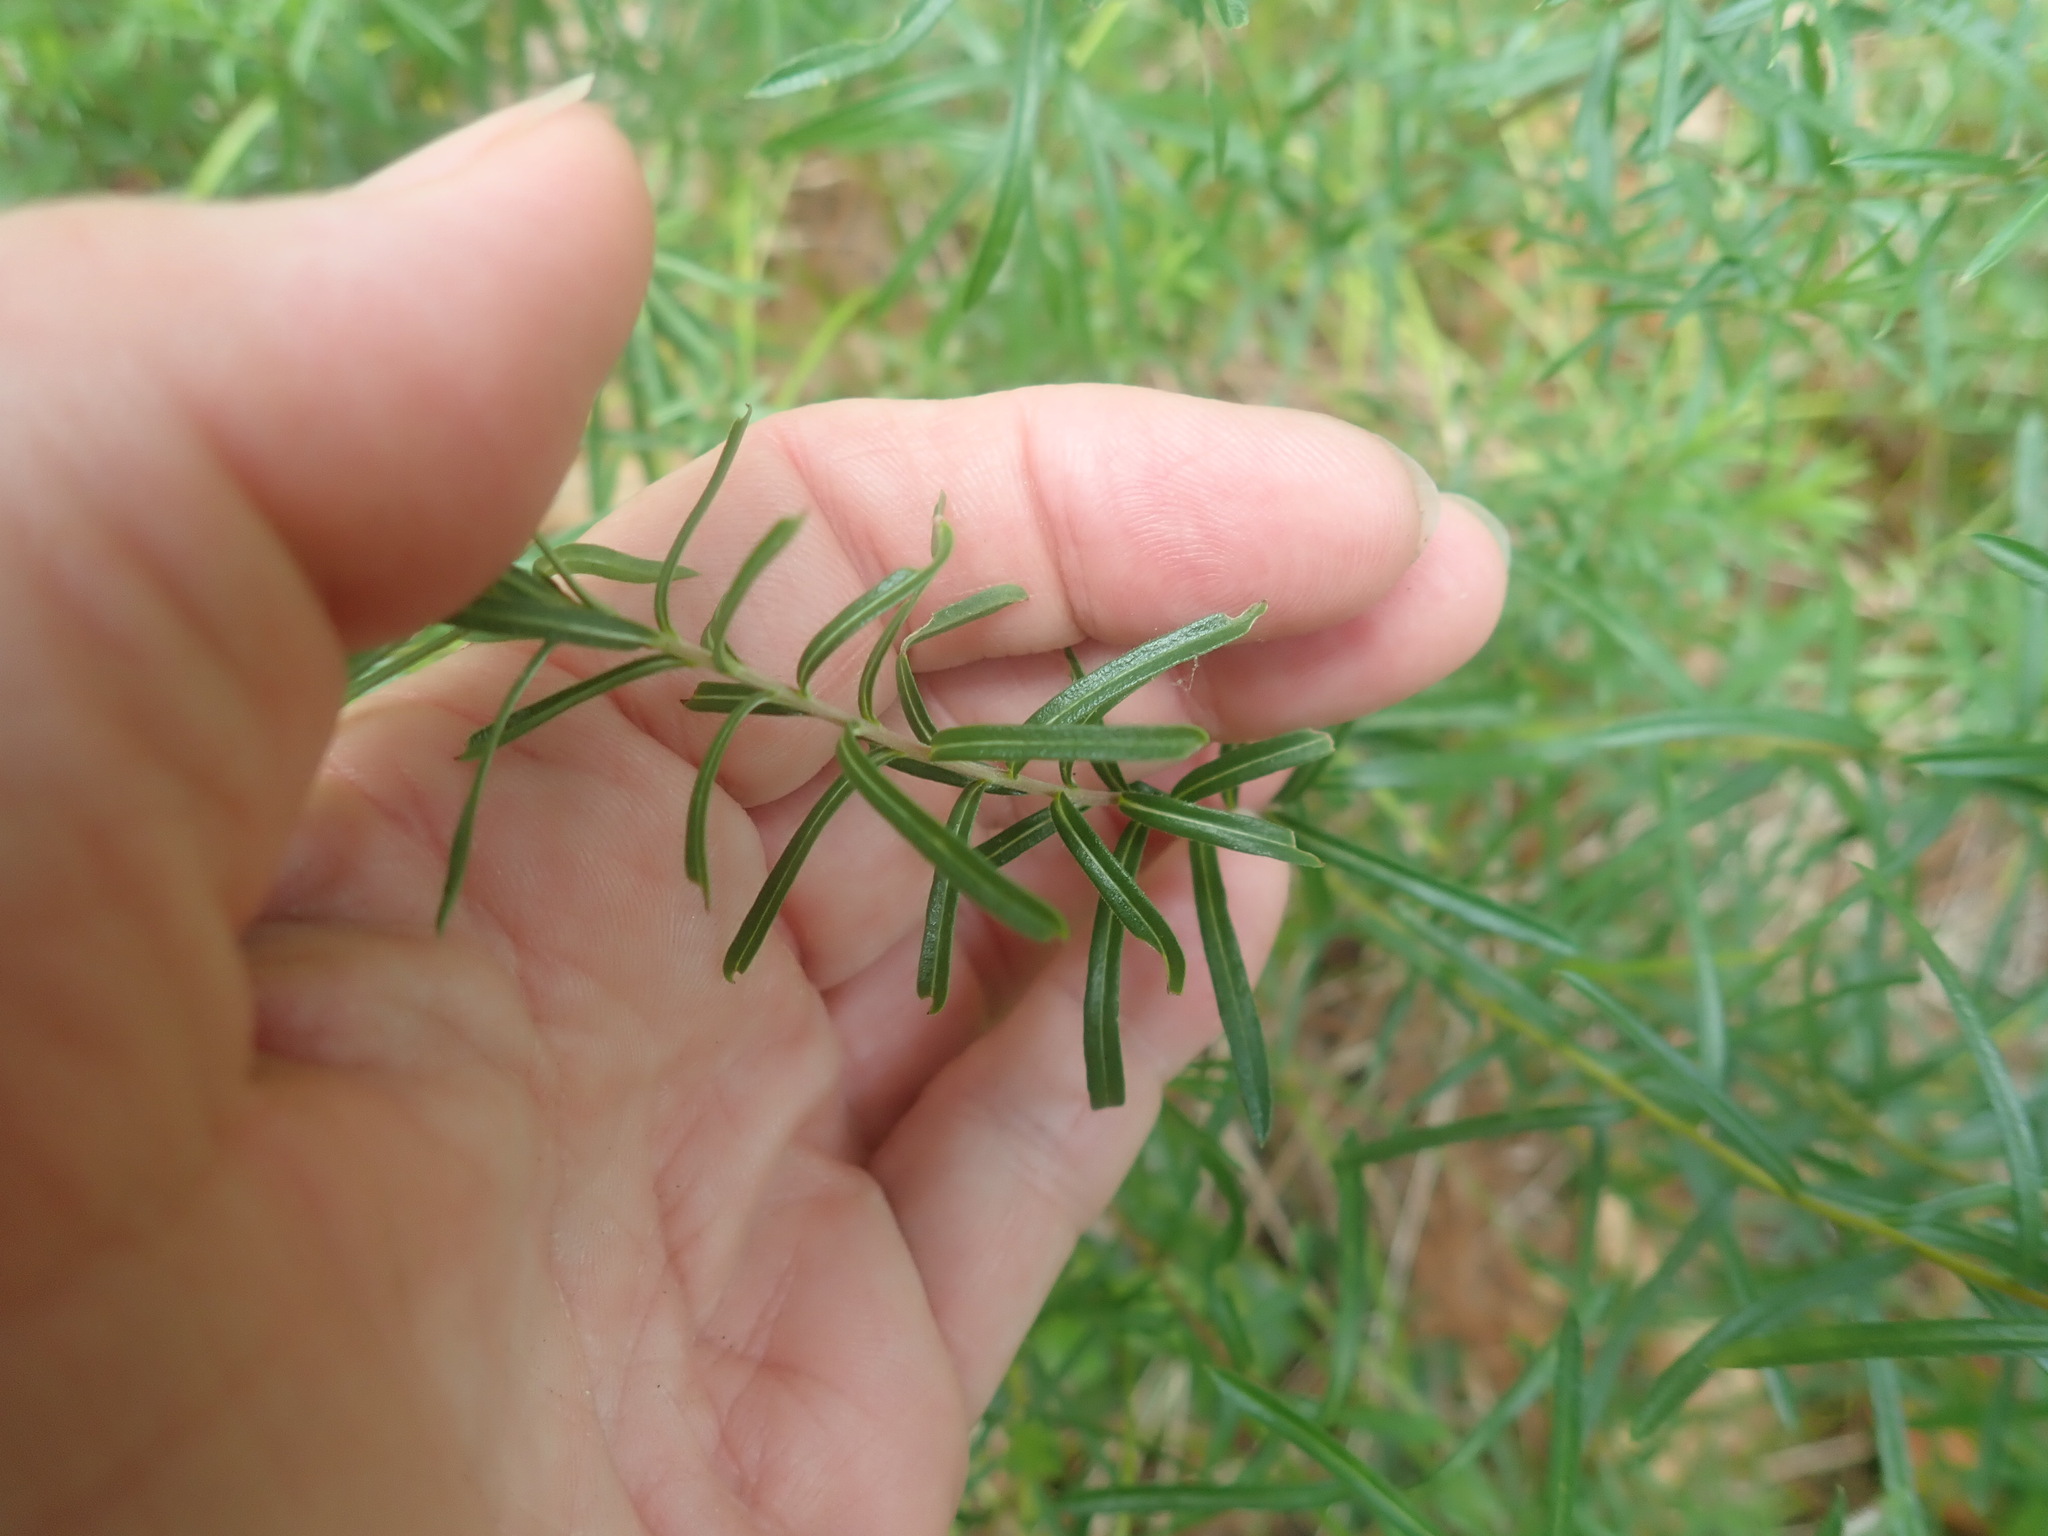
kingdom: Plantae
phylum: Tracheophyta
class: Magnoliopsida
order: Asterales
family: Asteraceae
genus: Ionactis
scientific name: Ionactis linariifolia
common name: Flax-leaf aster
